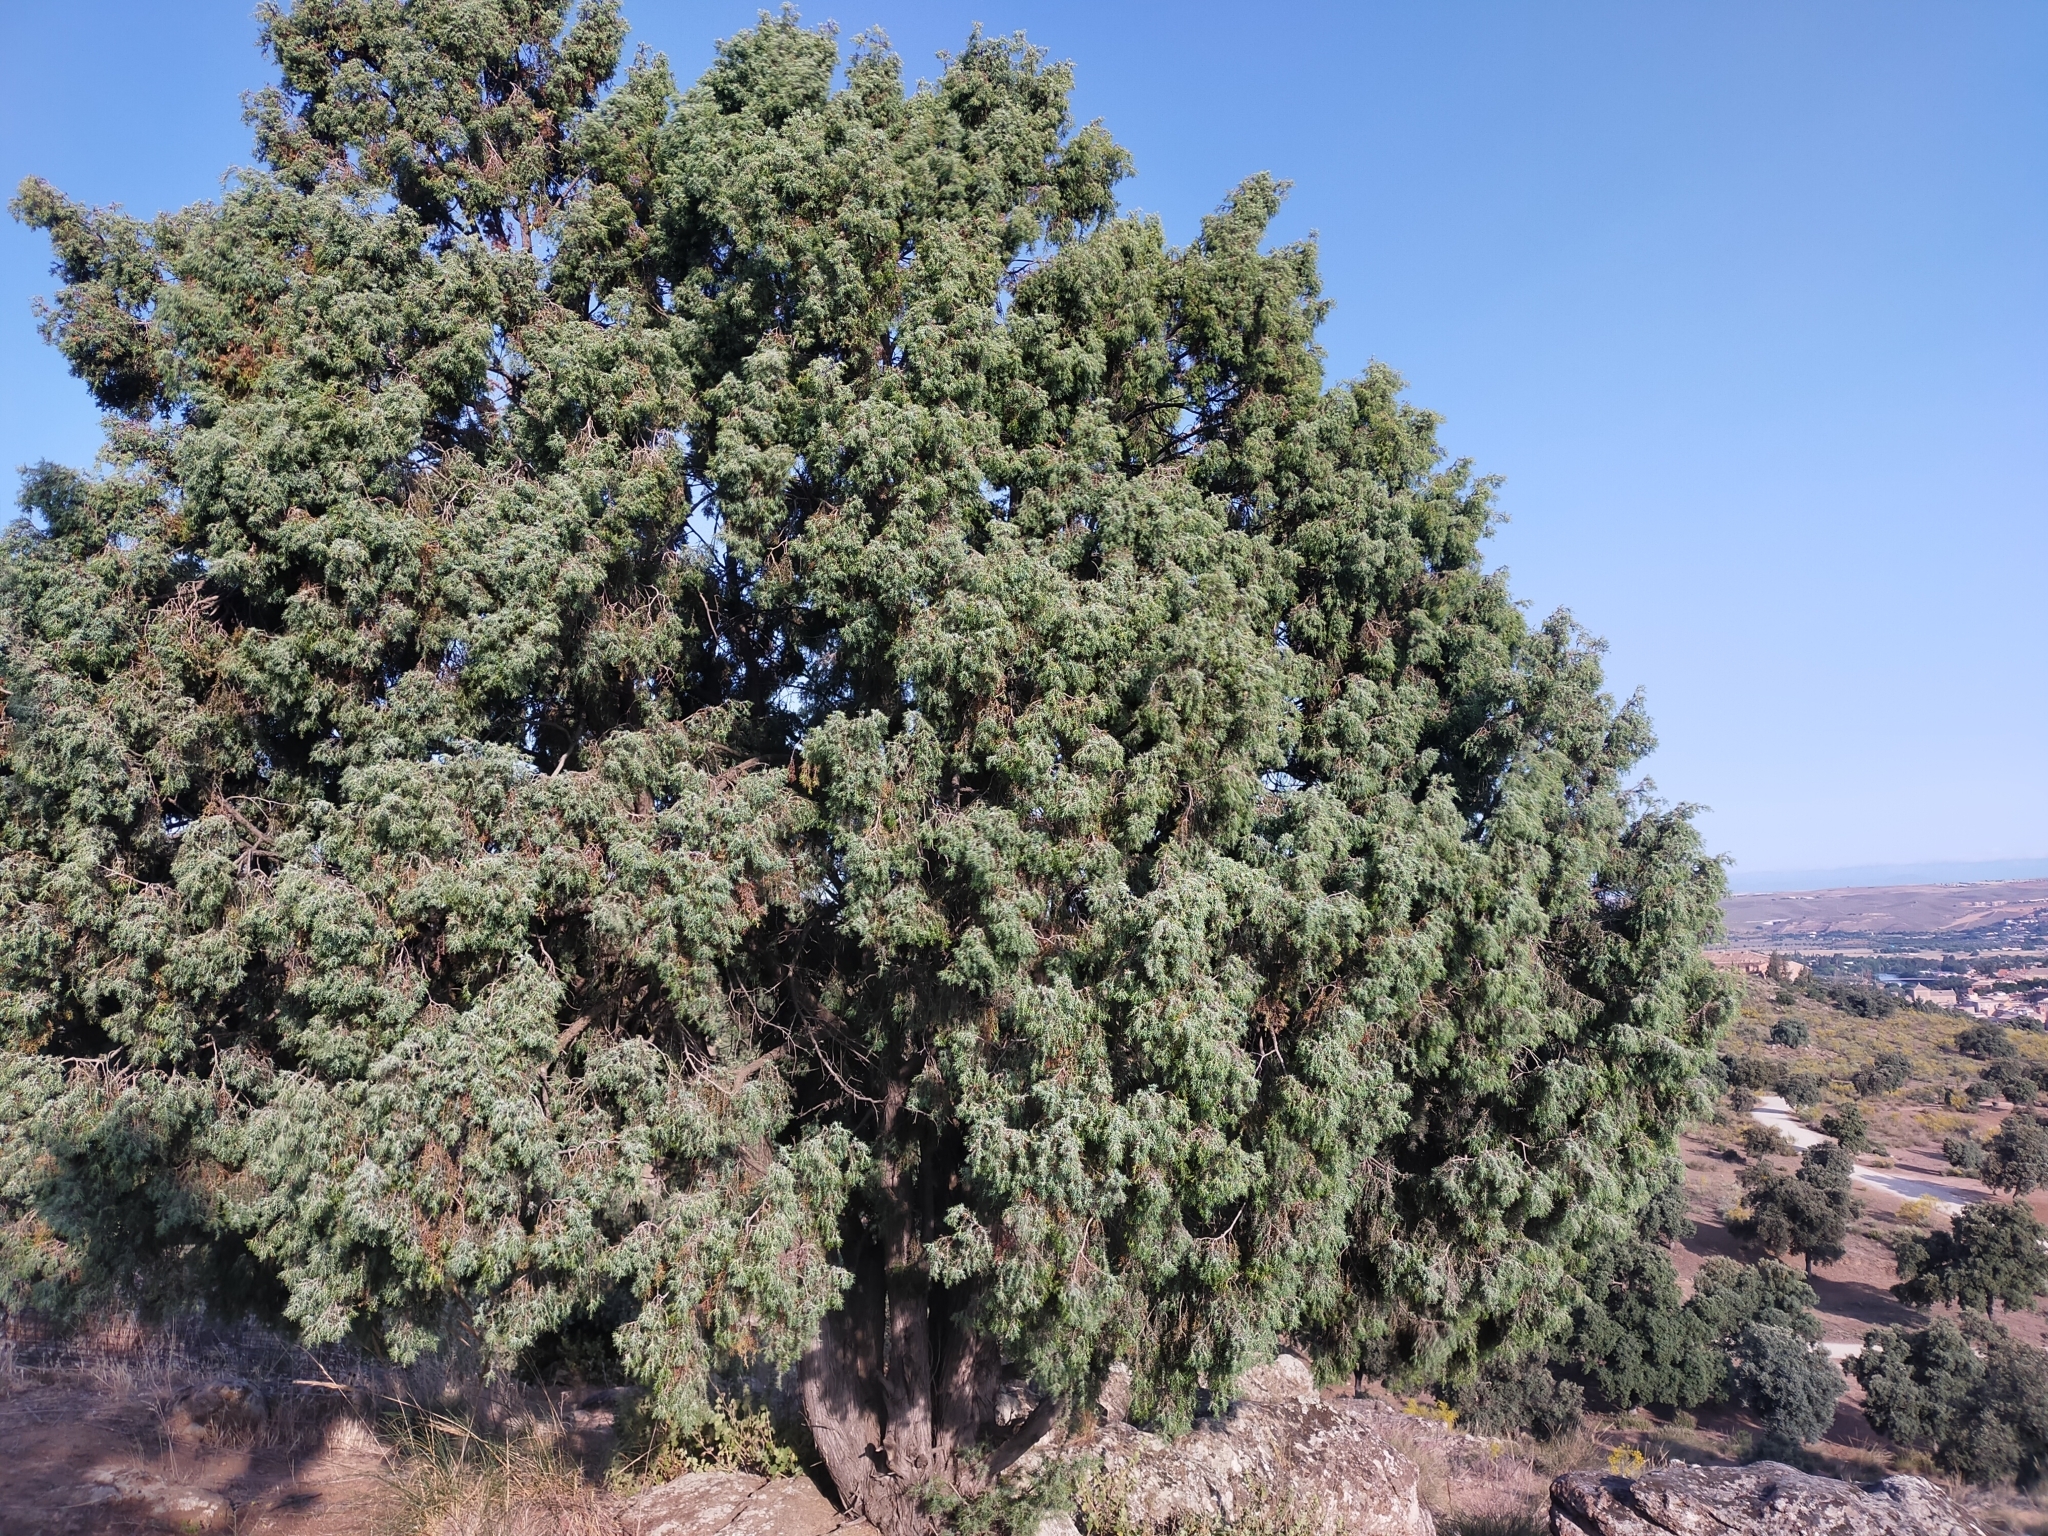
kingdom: Plantae
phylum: Tracheophyta
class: Pinopsida
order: Pinales
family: Cupressaceae
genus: Juniperus
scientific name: Juniperus oxycedrus
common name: Prickly juniper
